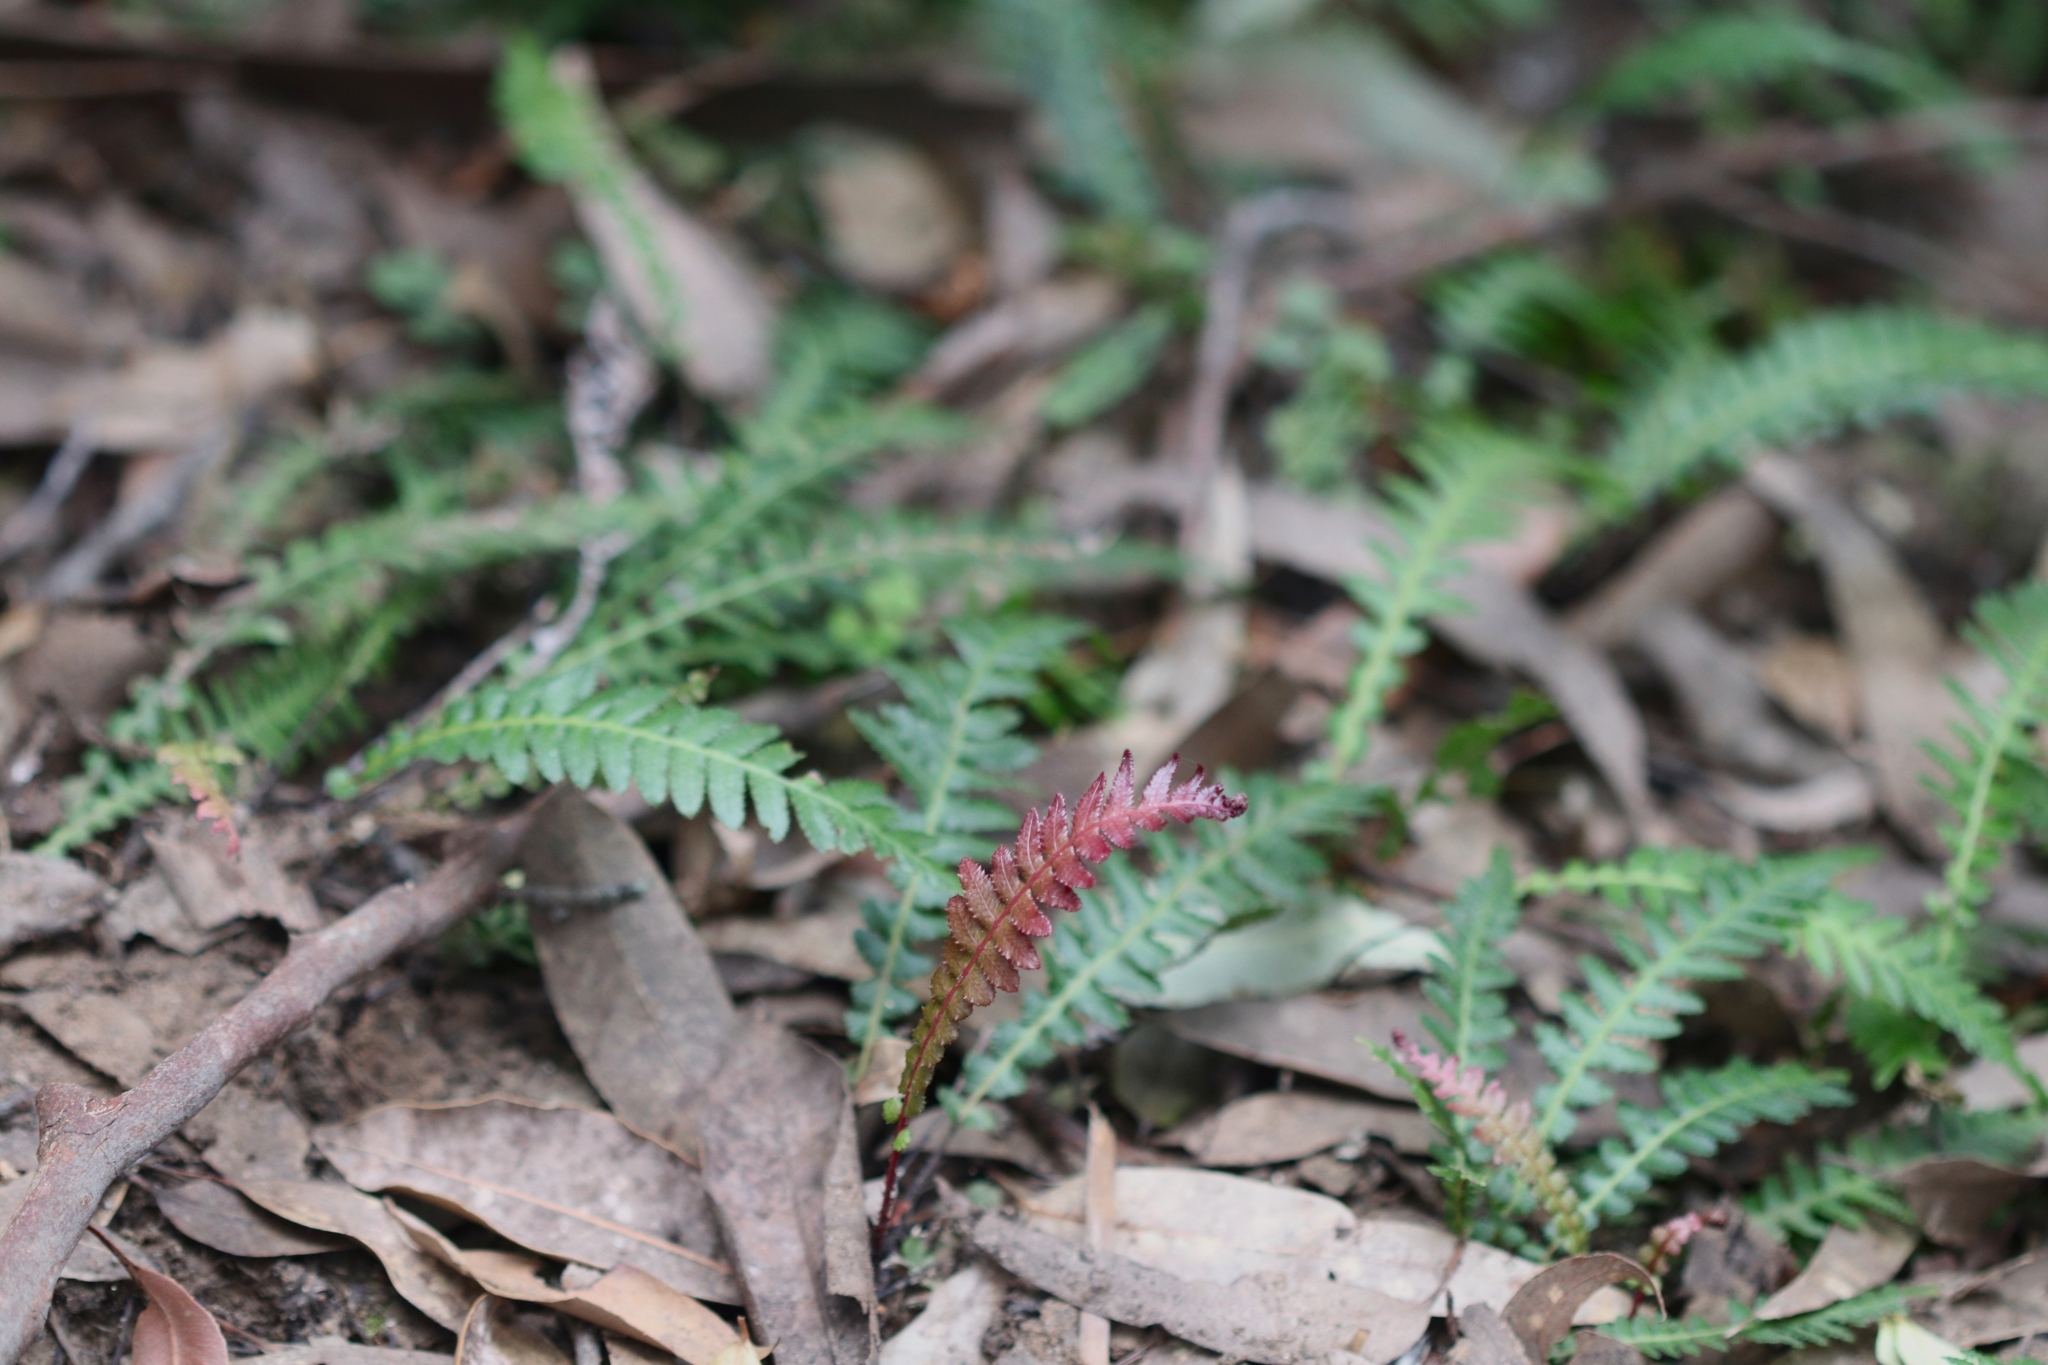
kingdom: Plantae
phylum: Tracheophyta
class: Polypodiopsida
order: Polypodiales
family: Blechnaceae
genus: Doodia
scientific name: Doodia aspera
